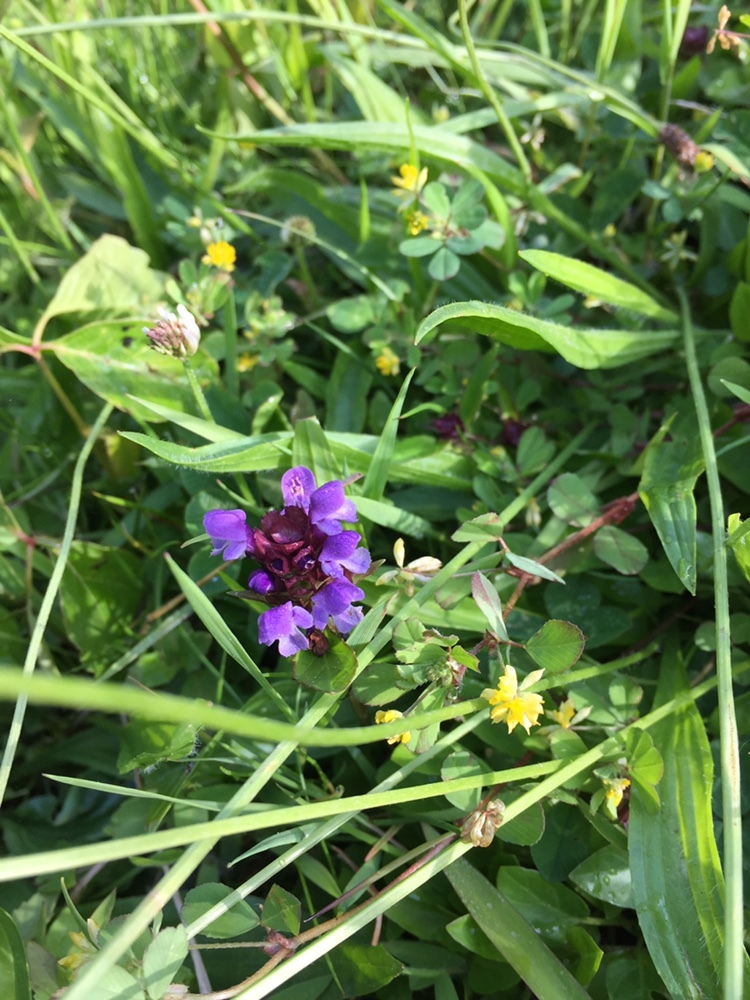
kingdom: Plantae
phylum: Tracheophyta
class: Magnoliopsida
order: Lamiales
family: Lamiaceae
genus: Prunella
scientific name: Prunella vulgaris
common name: Heal-all
